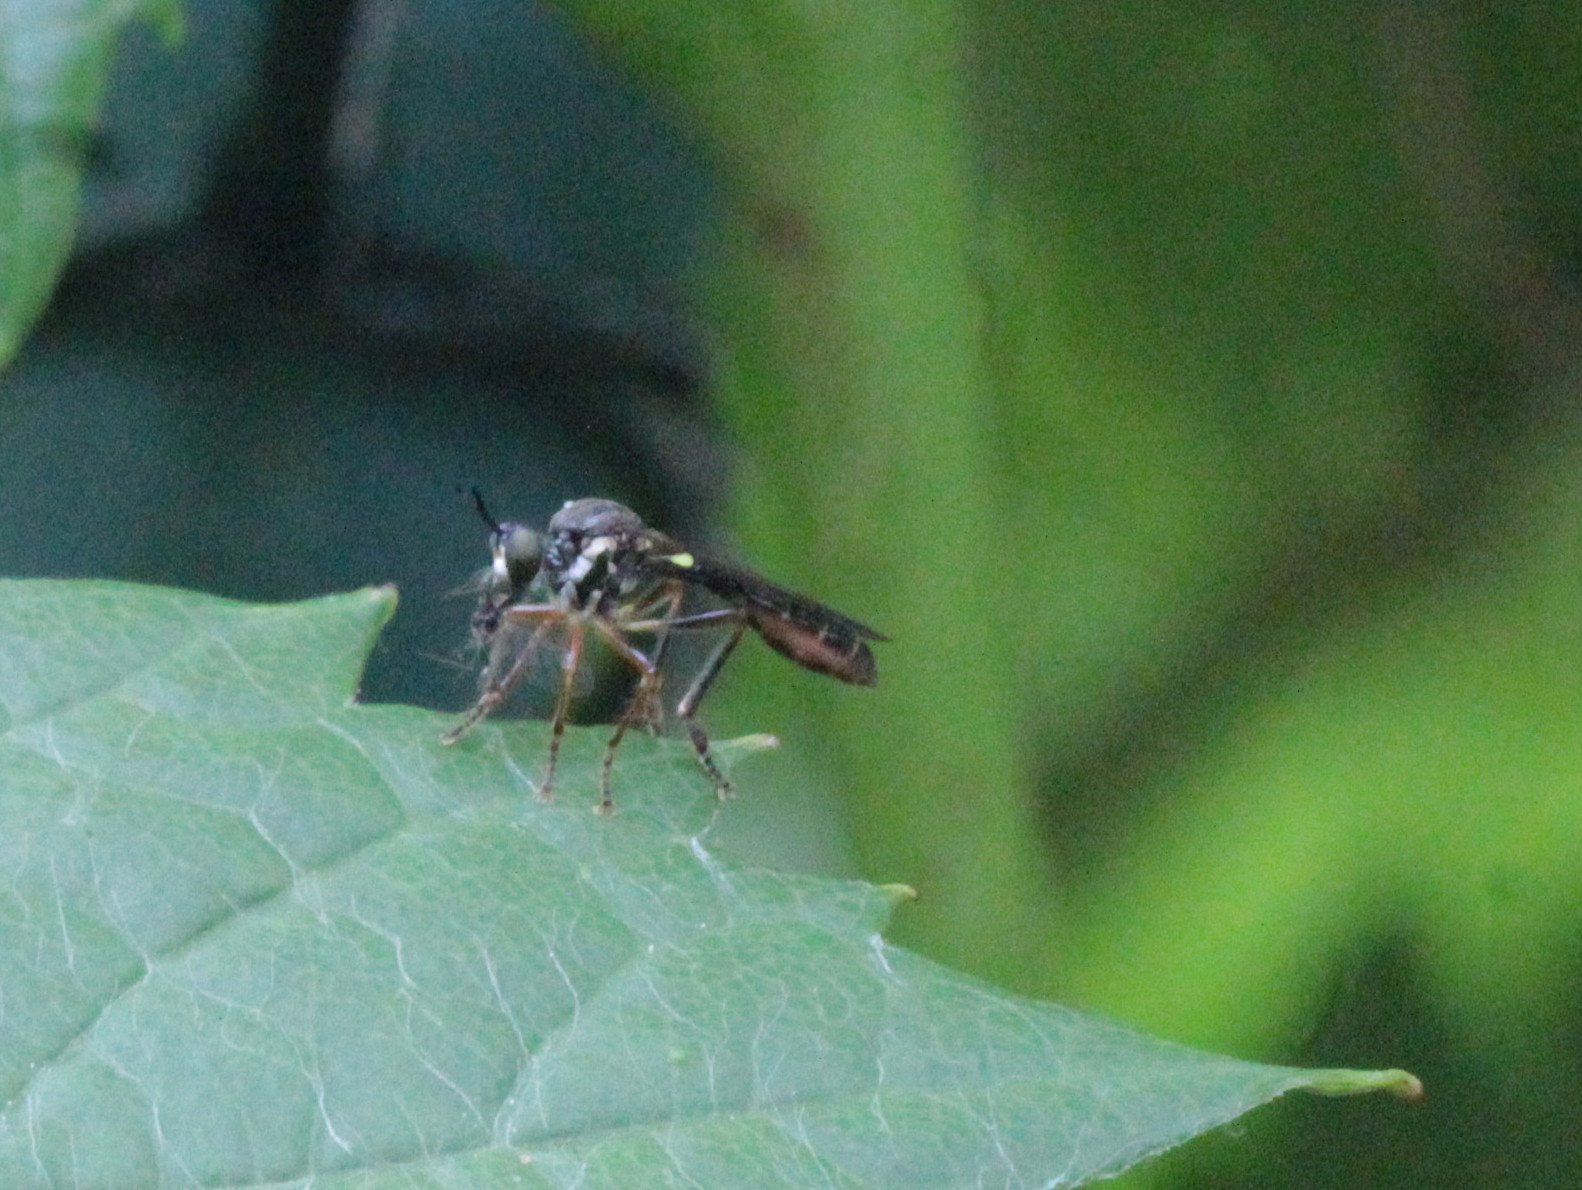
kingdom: Animalia
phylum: Arthropoda
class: Insecta
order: Diptera
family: Asilidae
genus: Dioctria
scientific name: Dioctria hyalipennis
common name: Stripe-legged robberfly
